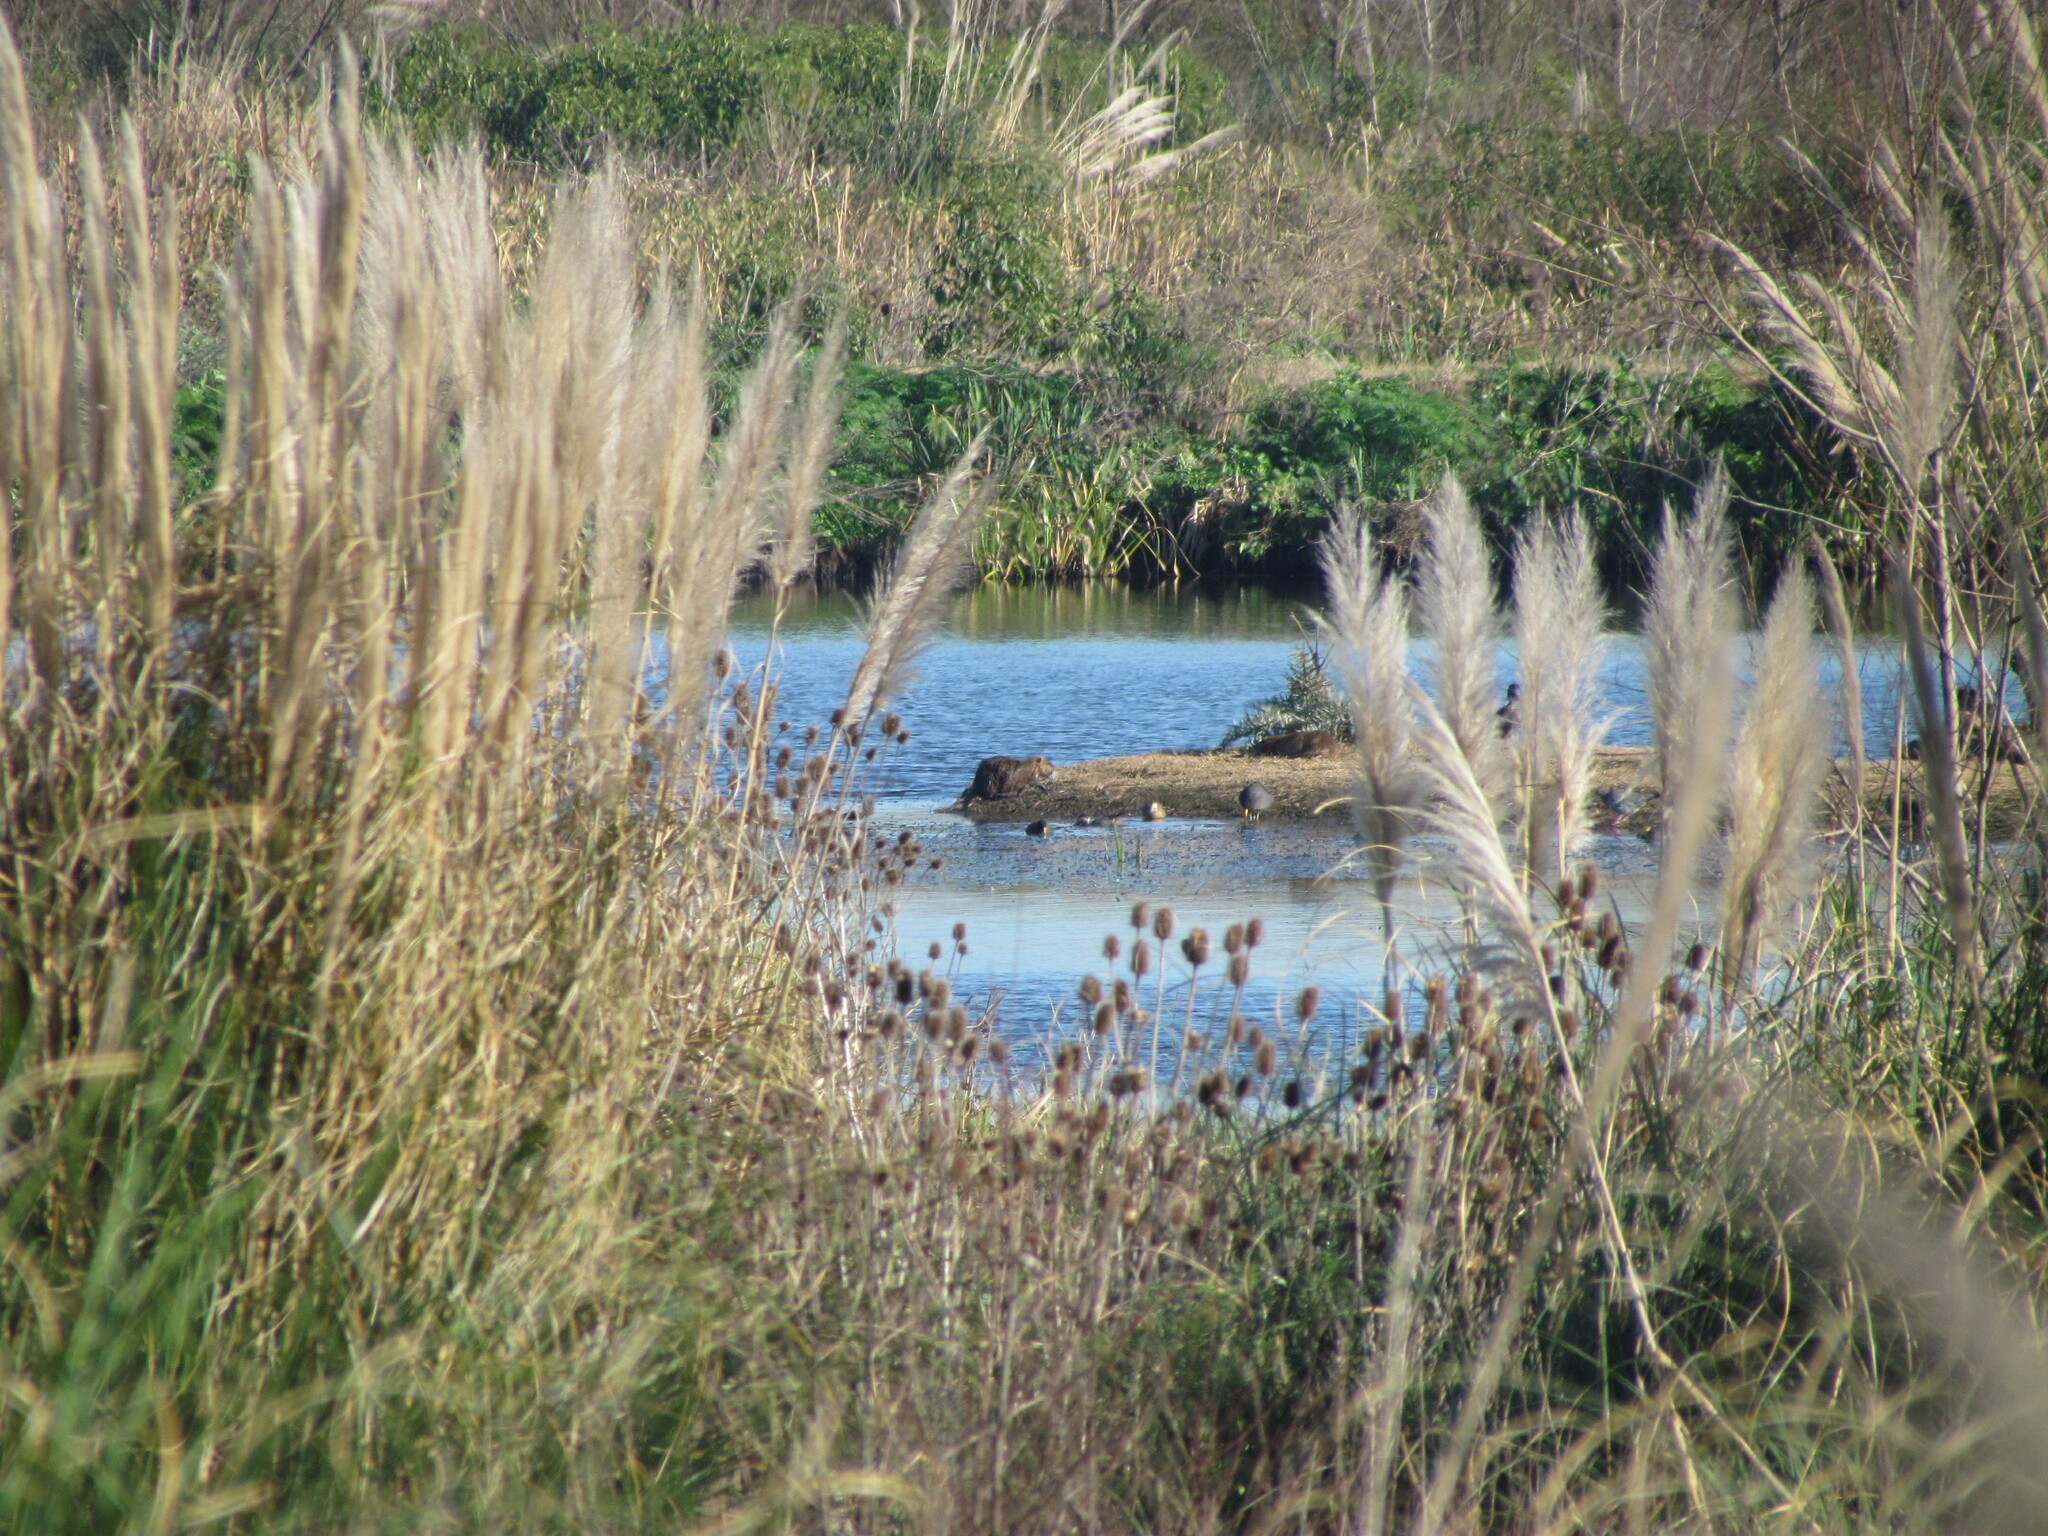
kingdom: Animalia
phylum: Chordata
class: Mammalia
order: Rodentia
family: Myocastoridae
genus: Myocastor
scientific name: Myocastor coypus
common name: Coypu
